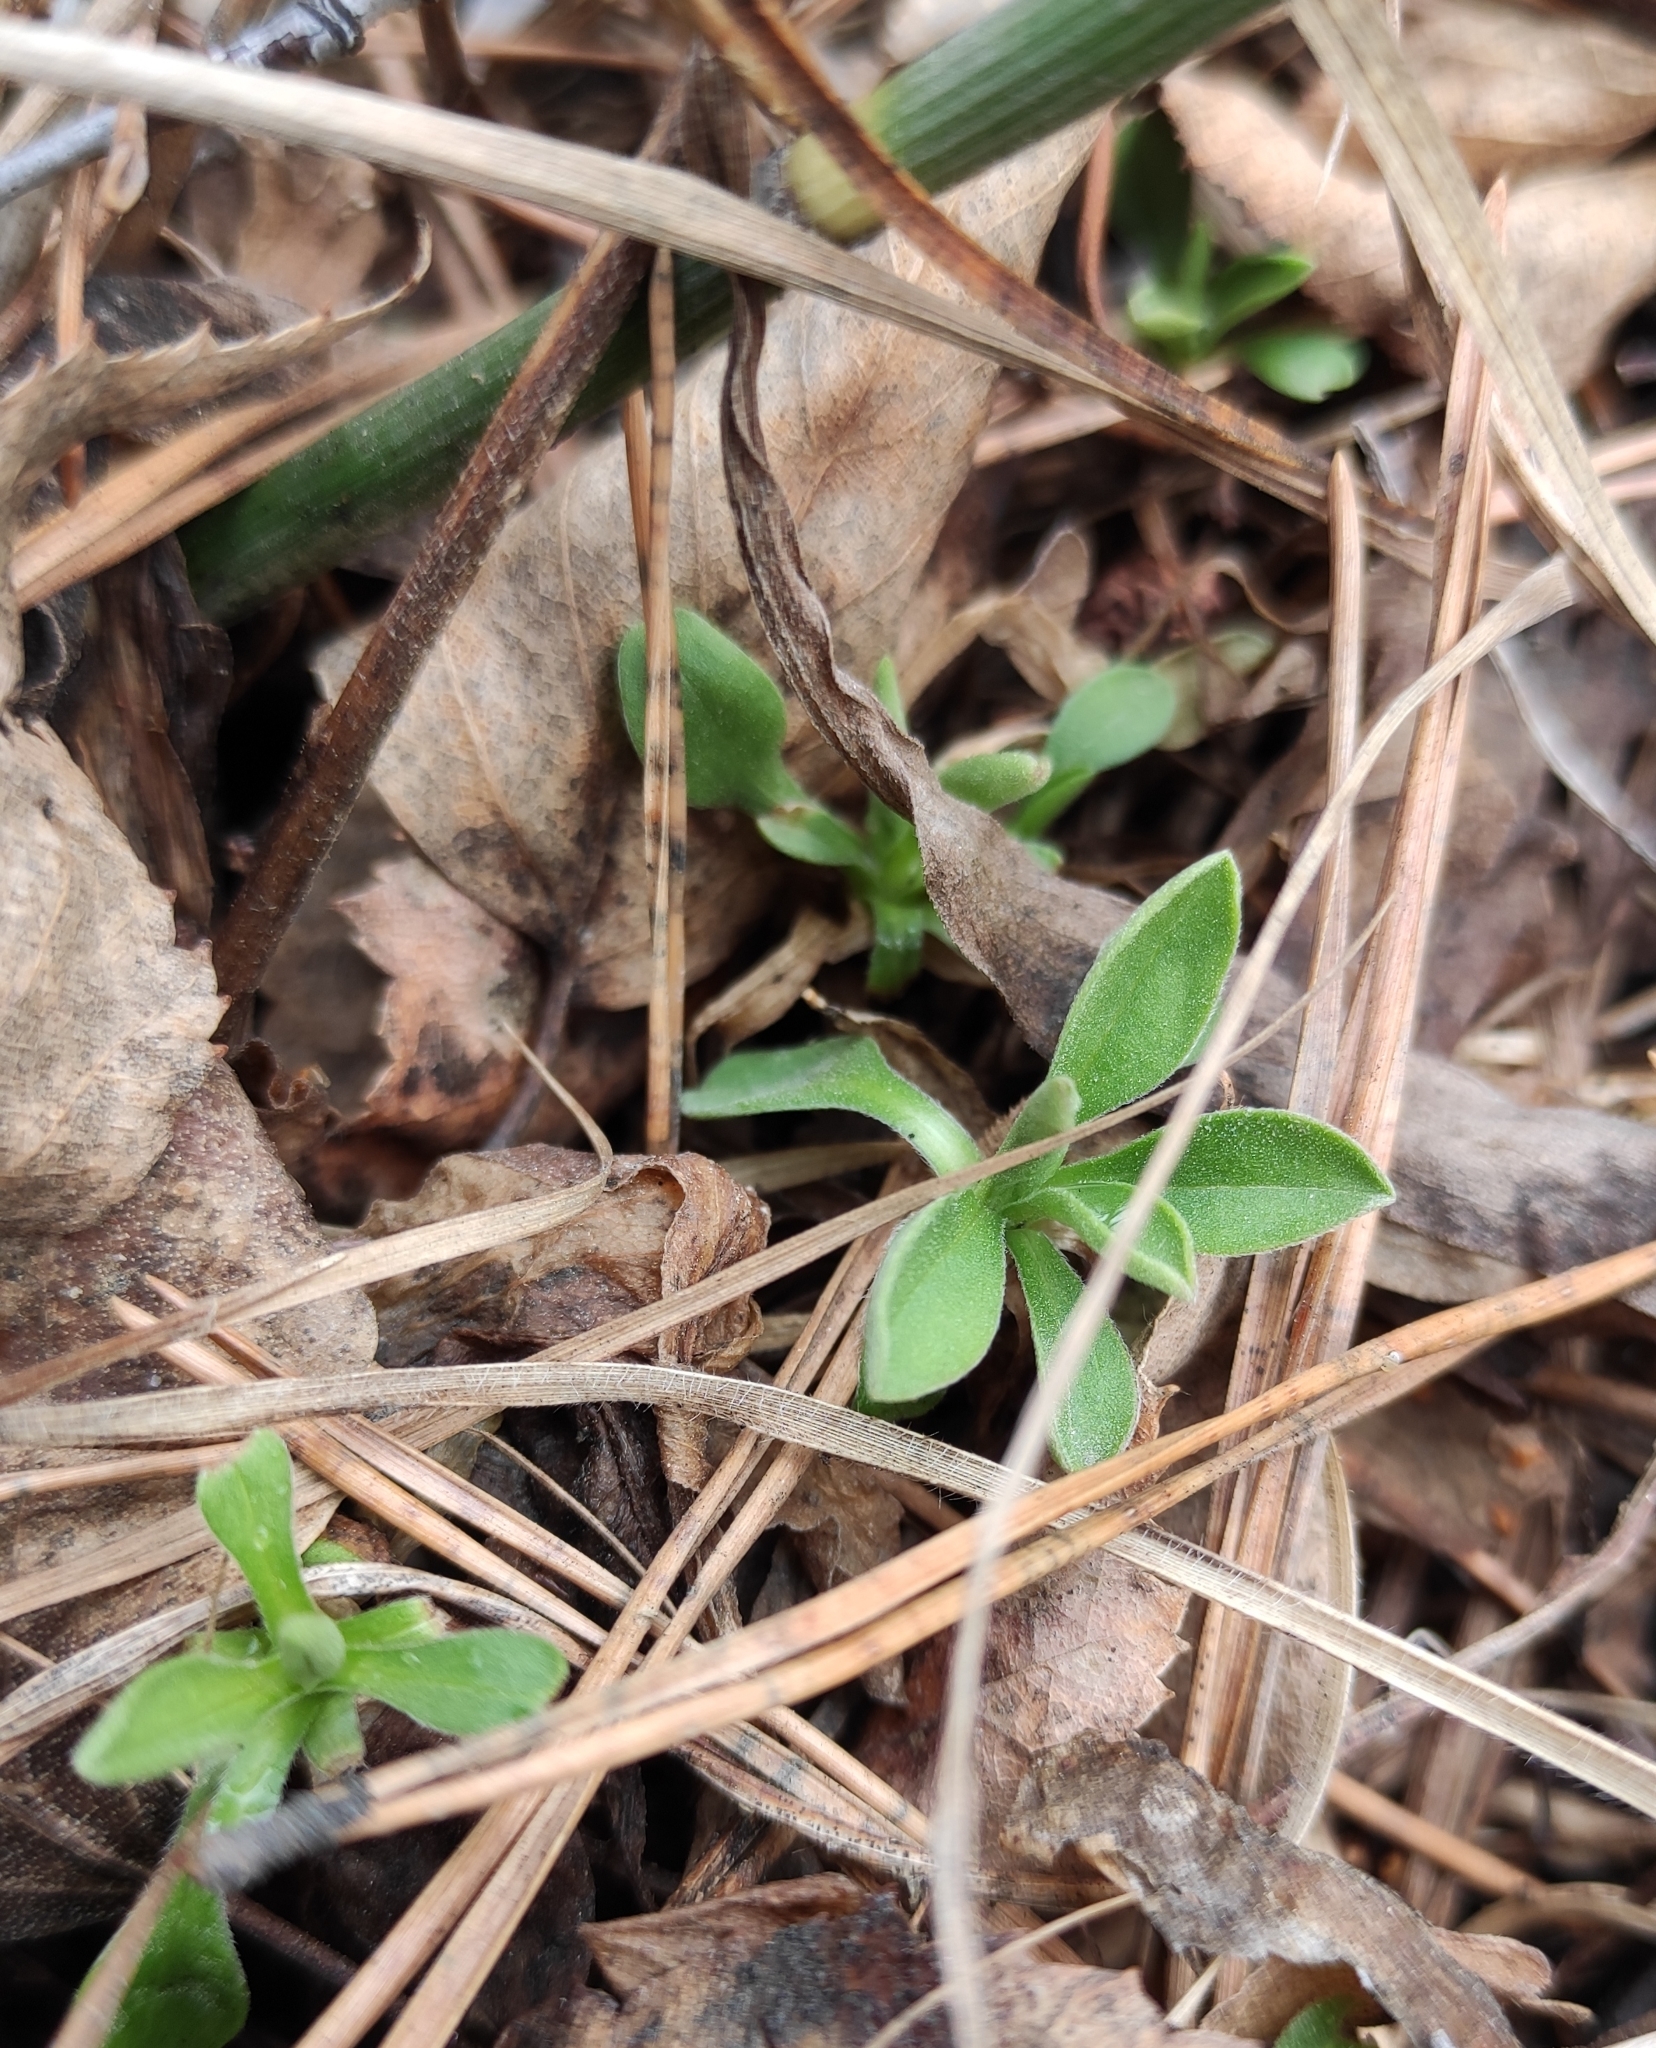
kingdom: Plantae
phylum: Tracheophyta
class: Magnoliopsida
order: Asterales
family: Asteraceae
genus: Aster
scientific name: Aster alpinus
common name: Alpine aster
